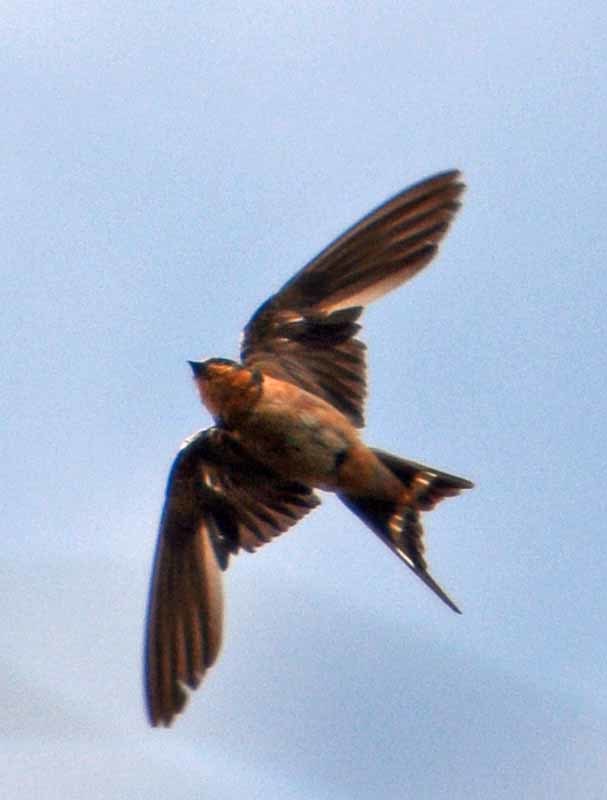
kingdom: Animalia
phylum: Chordata
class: Aves
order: Passeriformes
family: Hirundinidae
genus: Hirundo
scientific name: Hirundo rustica
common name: Barn swallow
